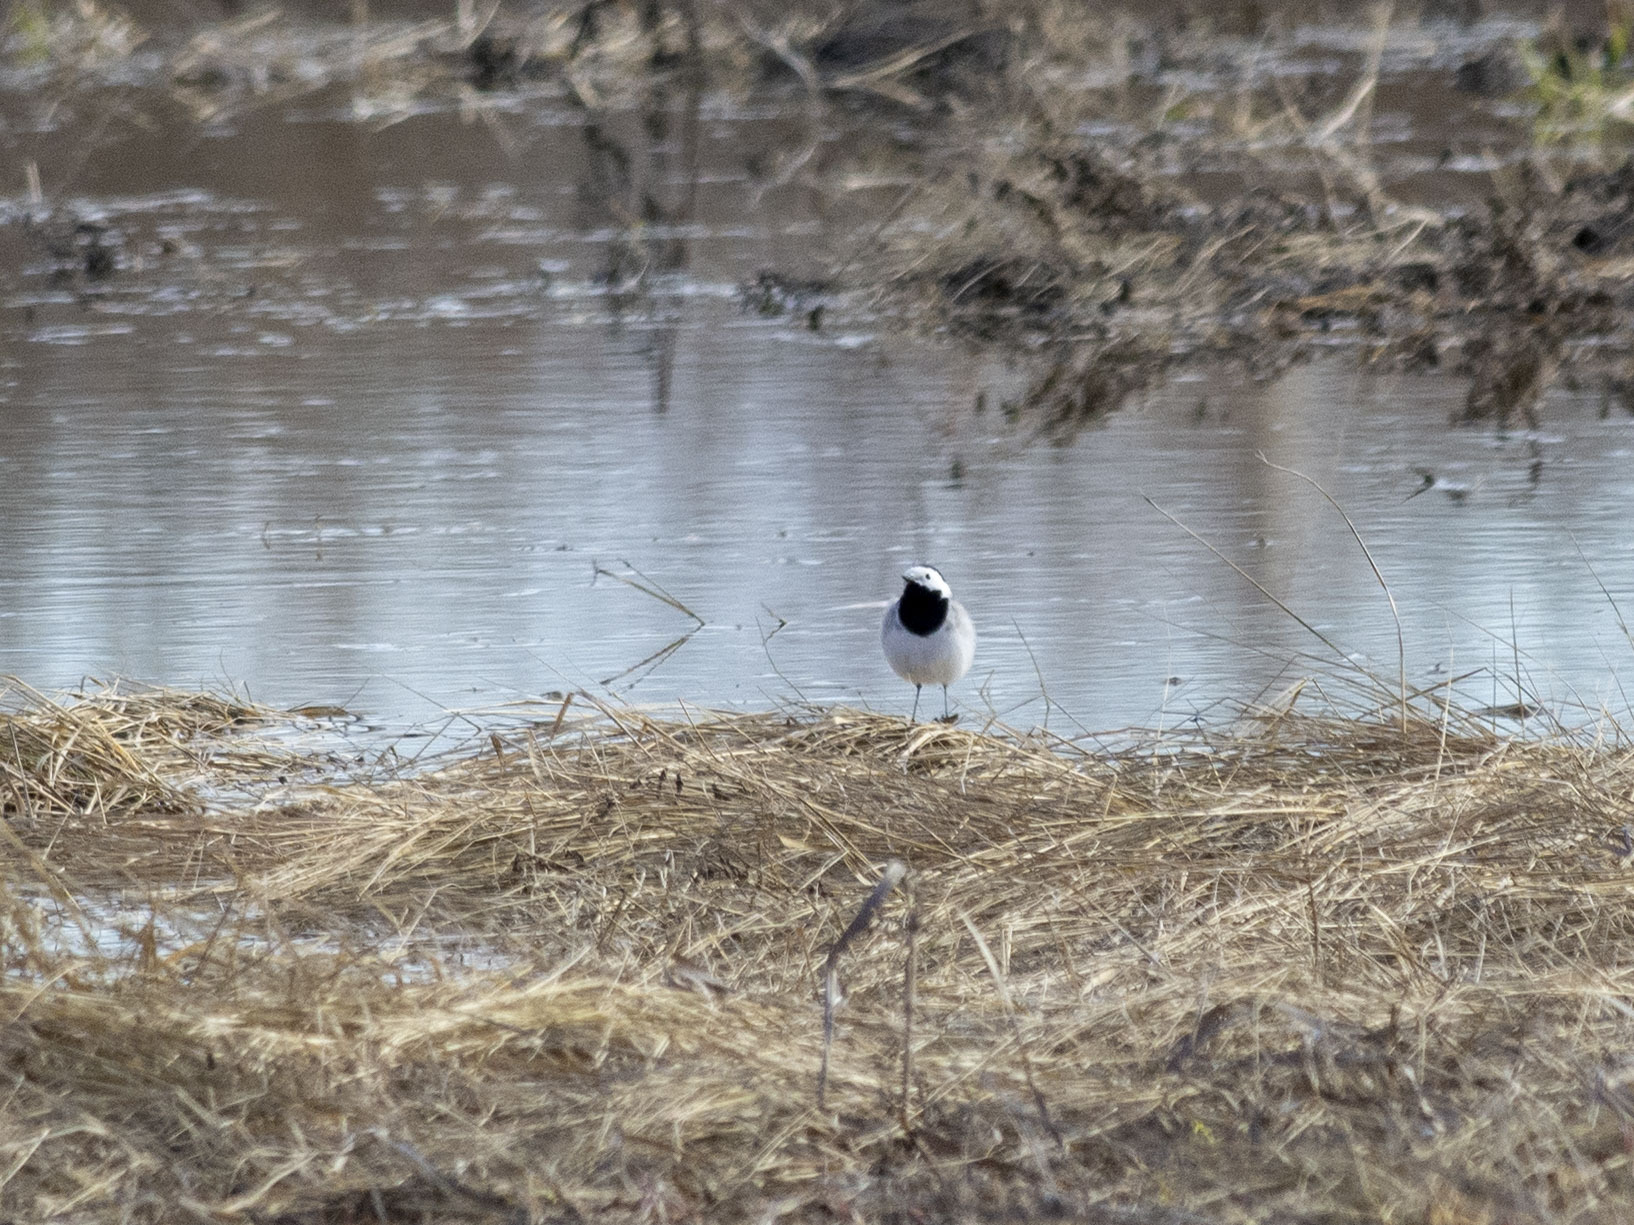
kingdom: Animalia
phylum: Chordata
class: Aves
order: Passeriformes
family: Motacillidae
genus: Motacilla
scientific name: Motacilla alba
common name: White wagtail
